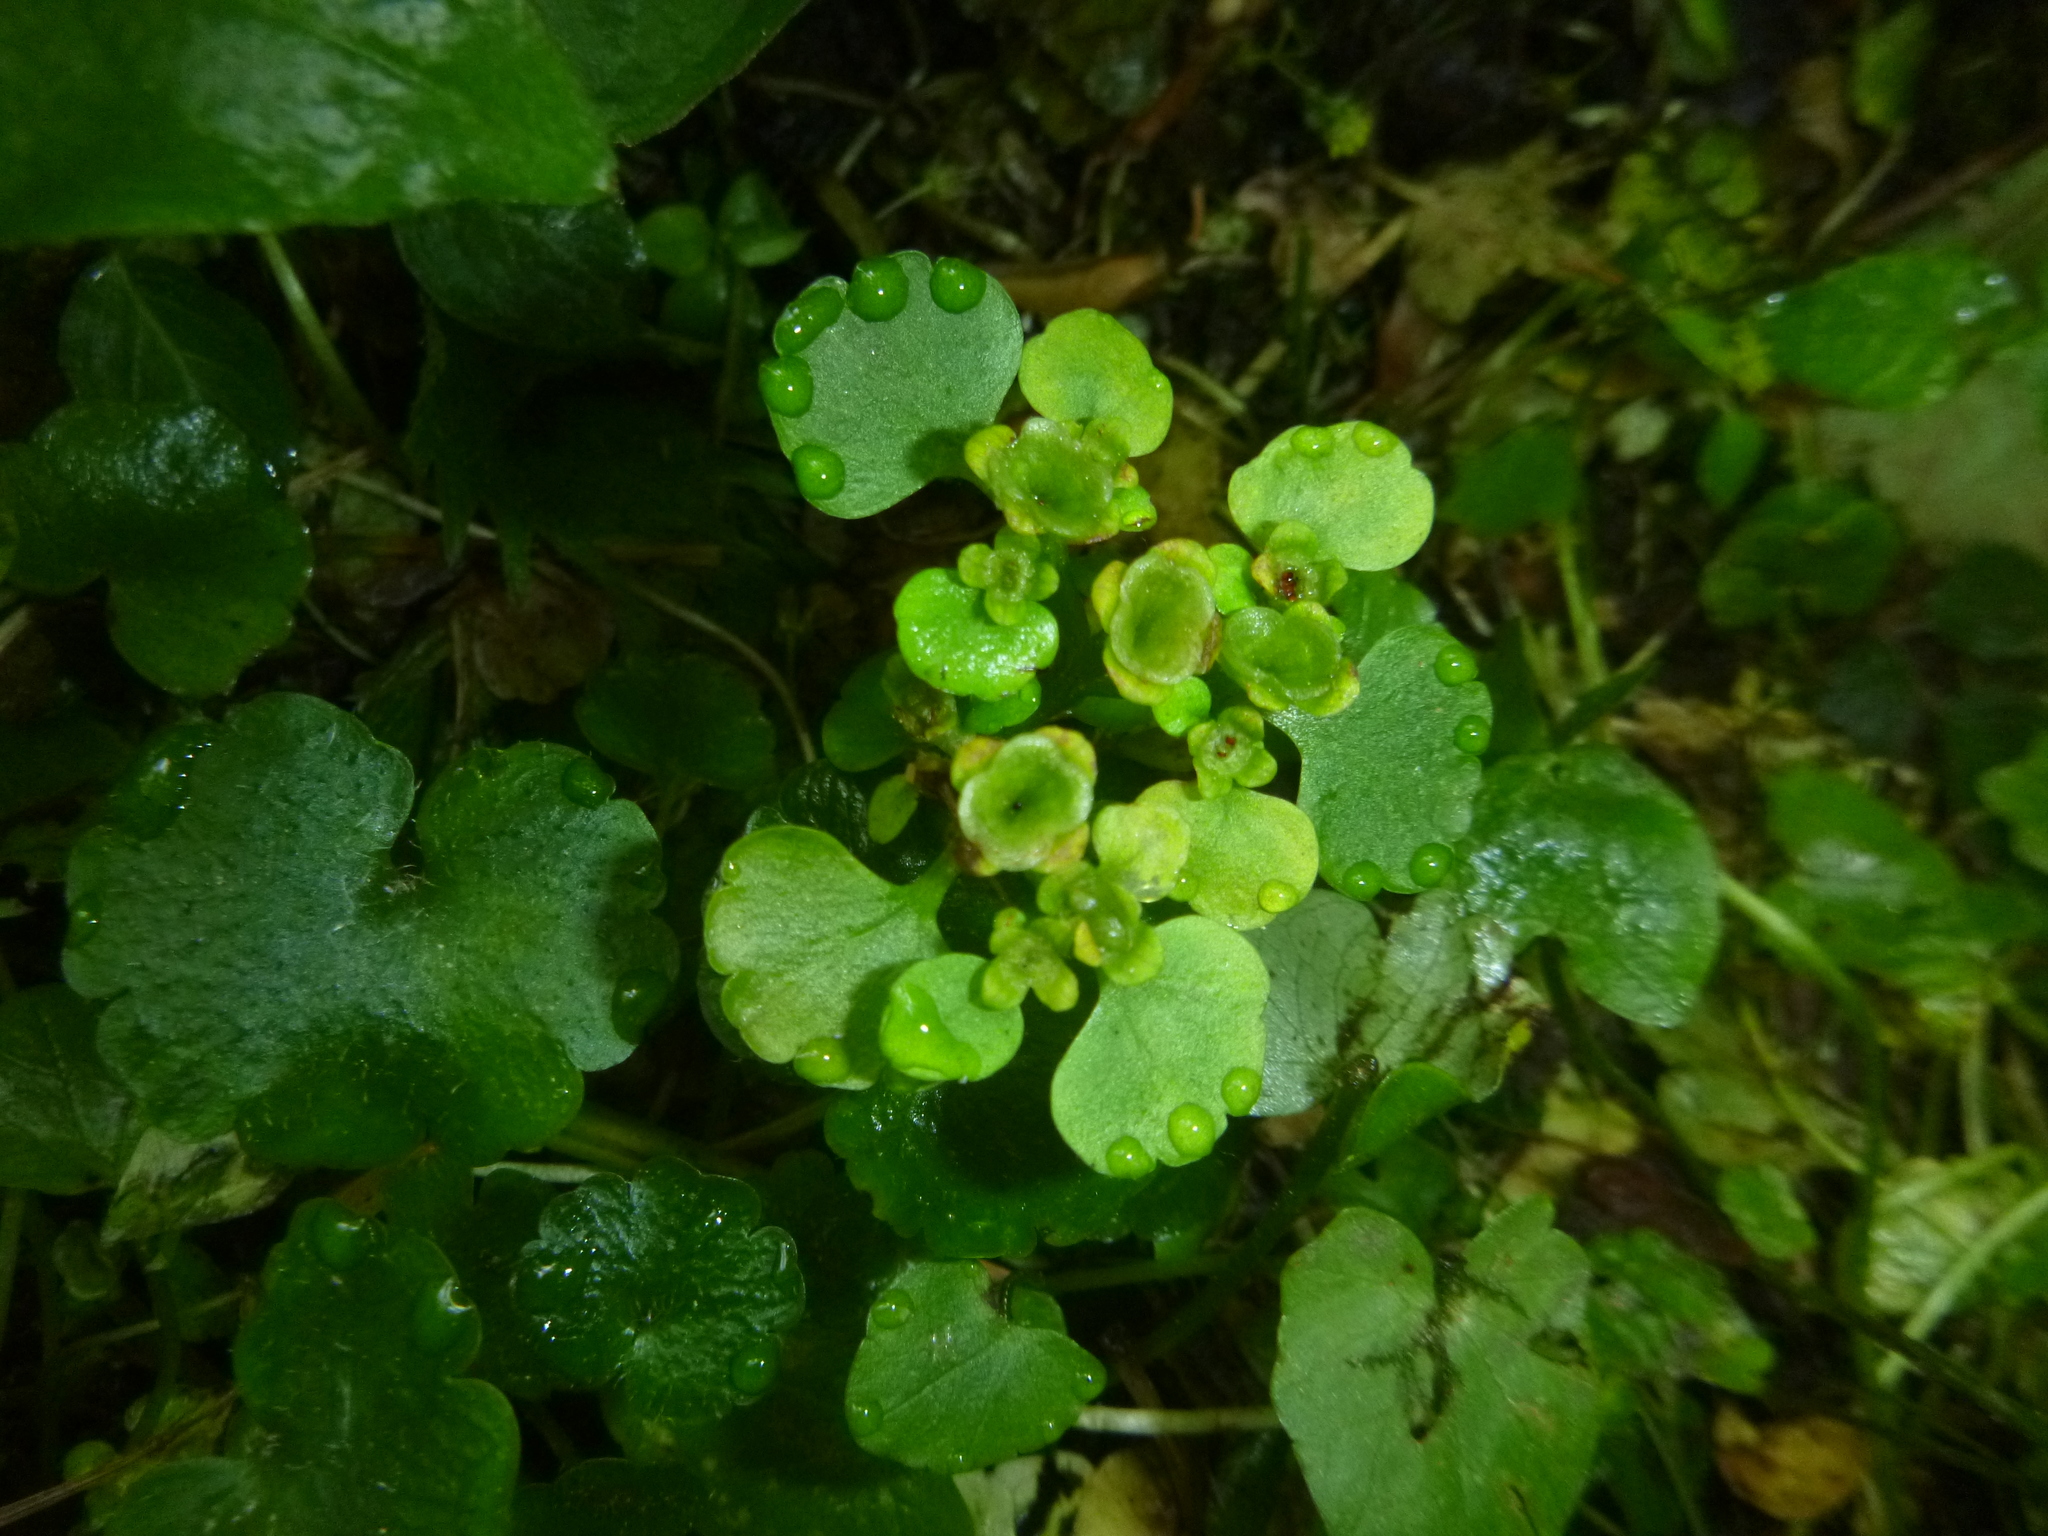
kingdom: Plantae
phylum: Tracheophyta
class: Magnoliopsida
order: Saxifragales
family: Saxifragaceae
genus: Chrysosplenium
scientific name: Chrysosplenium alternifolium
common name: Alternate-leaved golden-saxifrage
